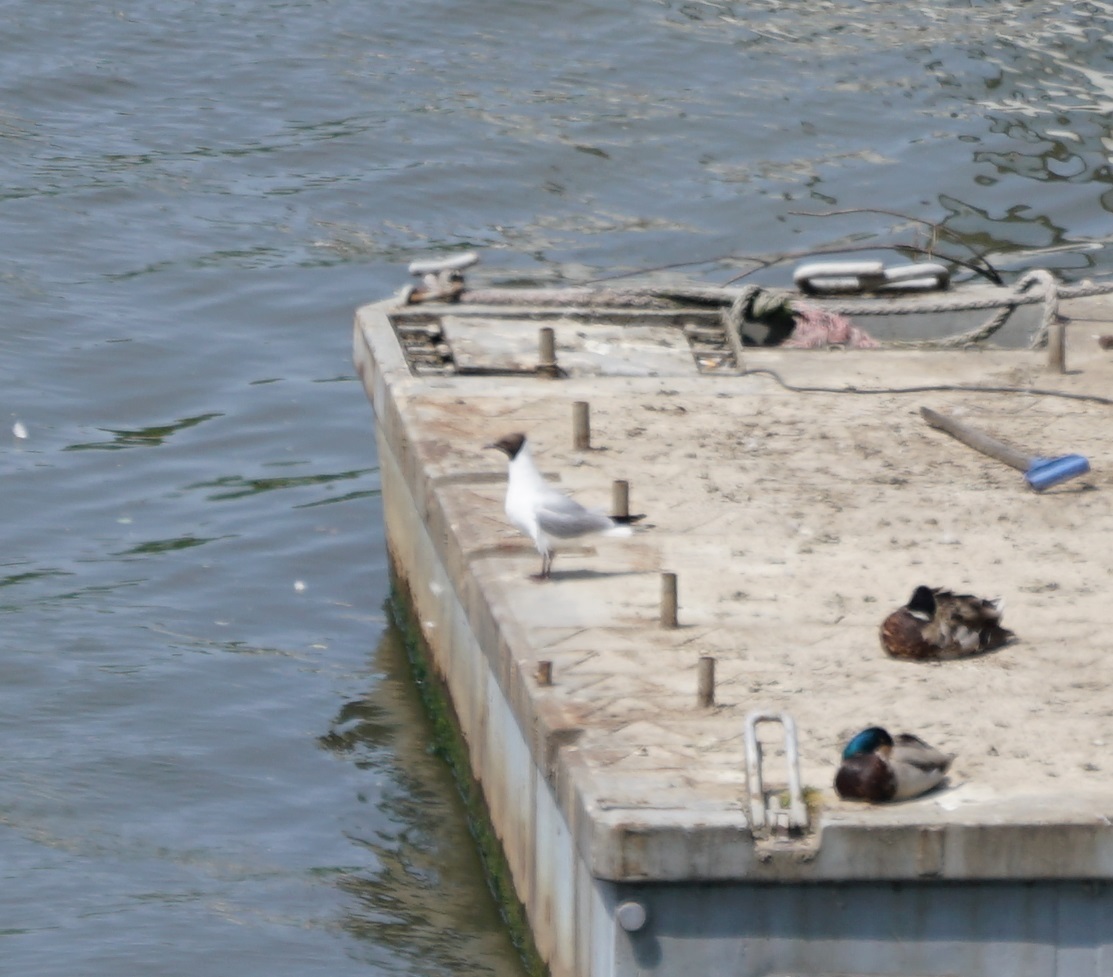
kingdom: Animalia
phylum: Chordata
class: Aves
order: Charadriiformes
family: Laridae
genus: Chroicocephalus
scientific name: Chroicocephalus ridibundus
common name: Black-headed gull
